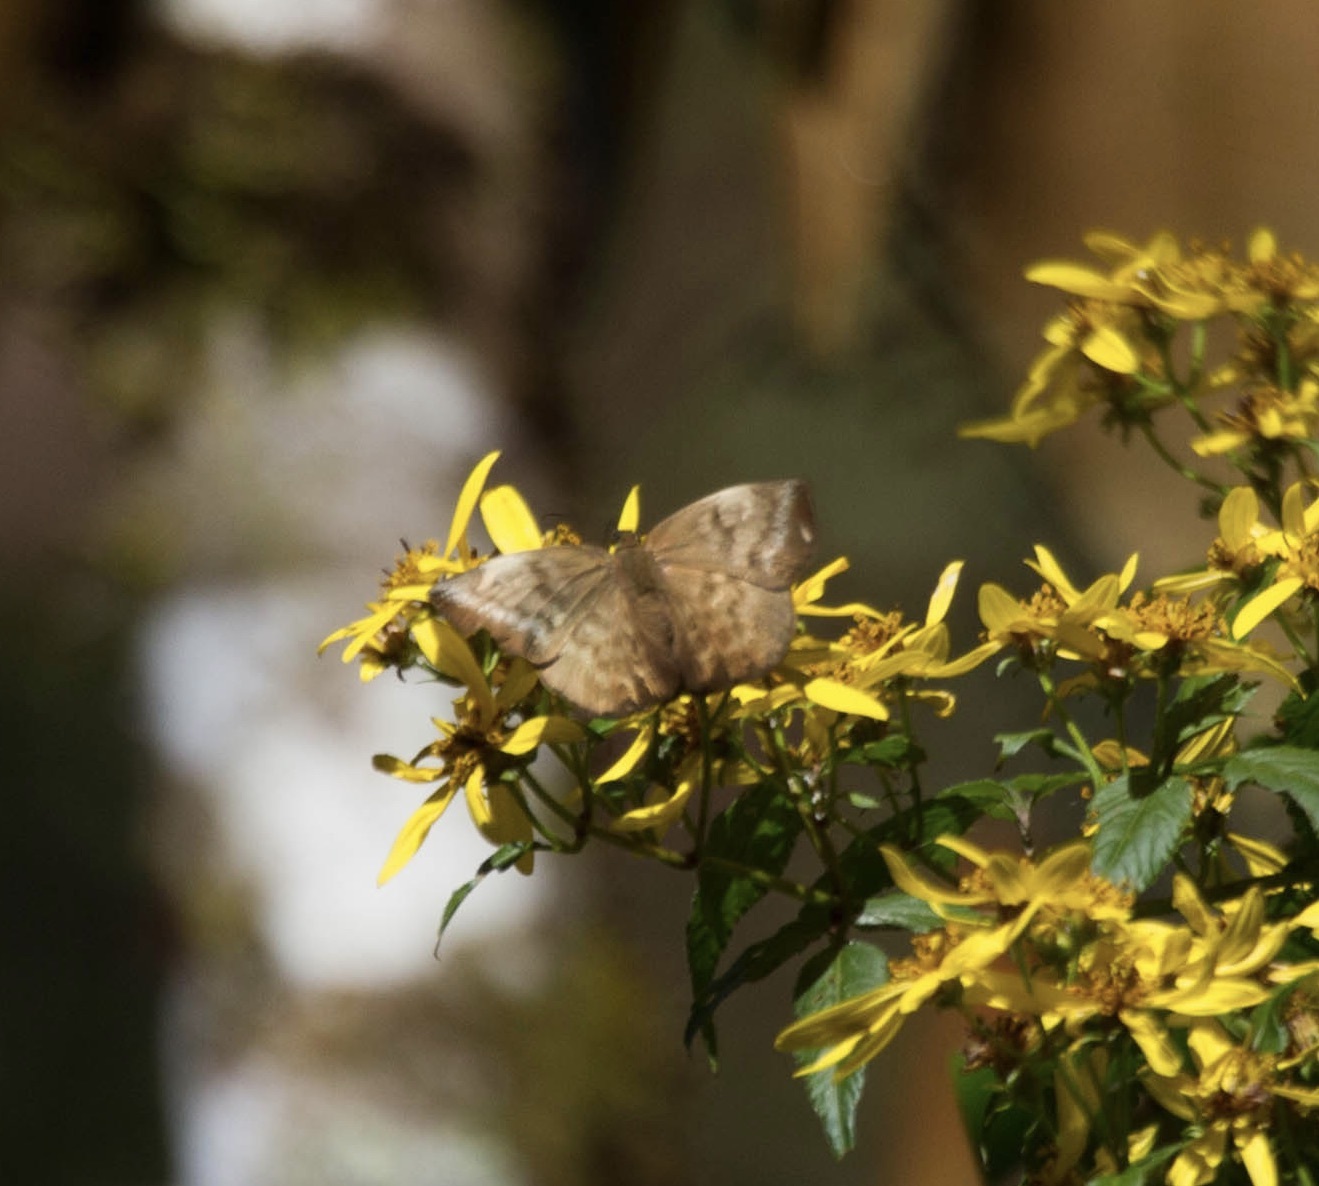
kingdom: Animalia
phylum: Arthropoda
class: Insecta
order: Lepidoptera
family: Hesperiidae
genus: Achlyodes
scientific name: Achlyodes pallida
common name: Pale sicklewing
